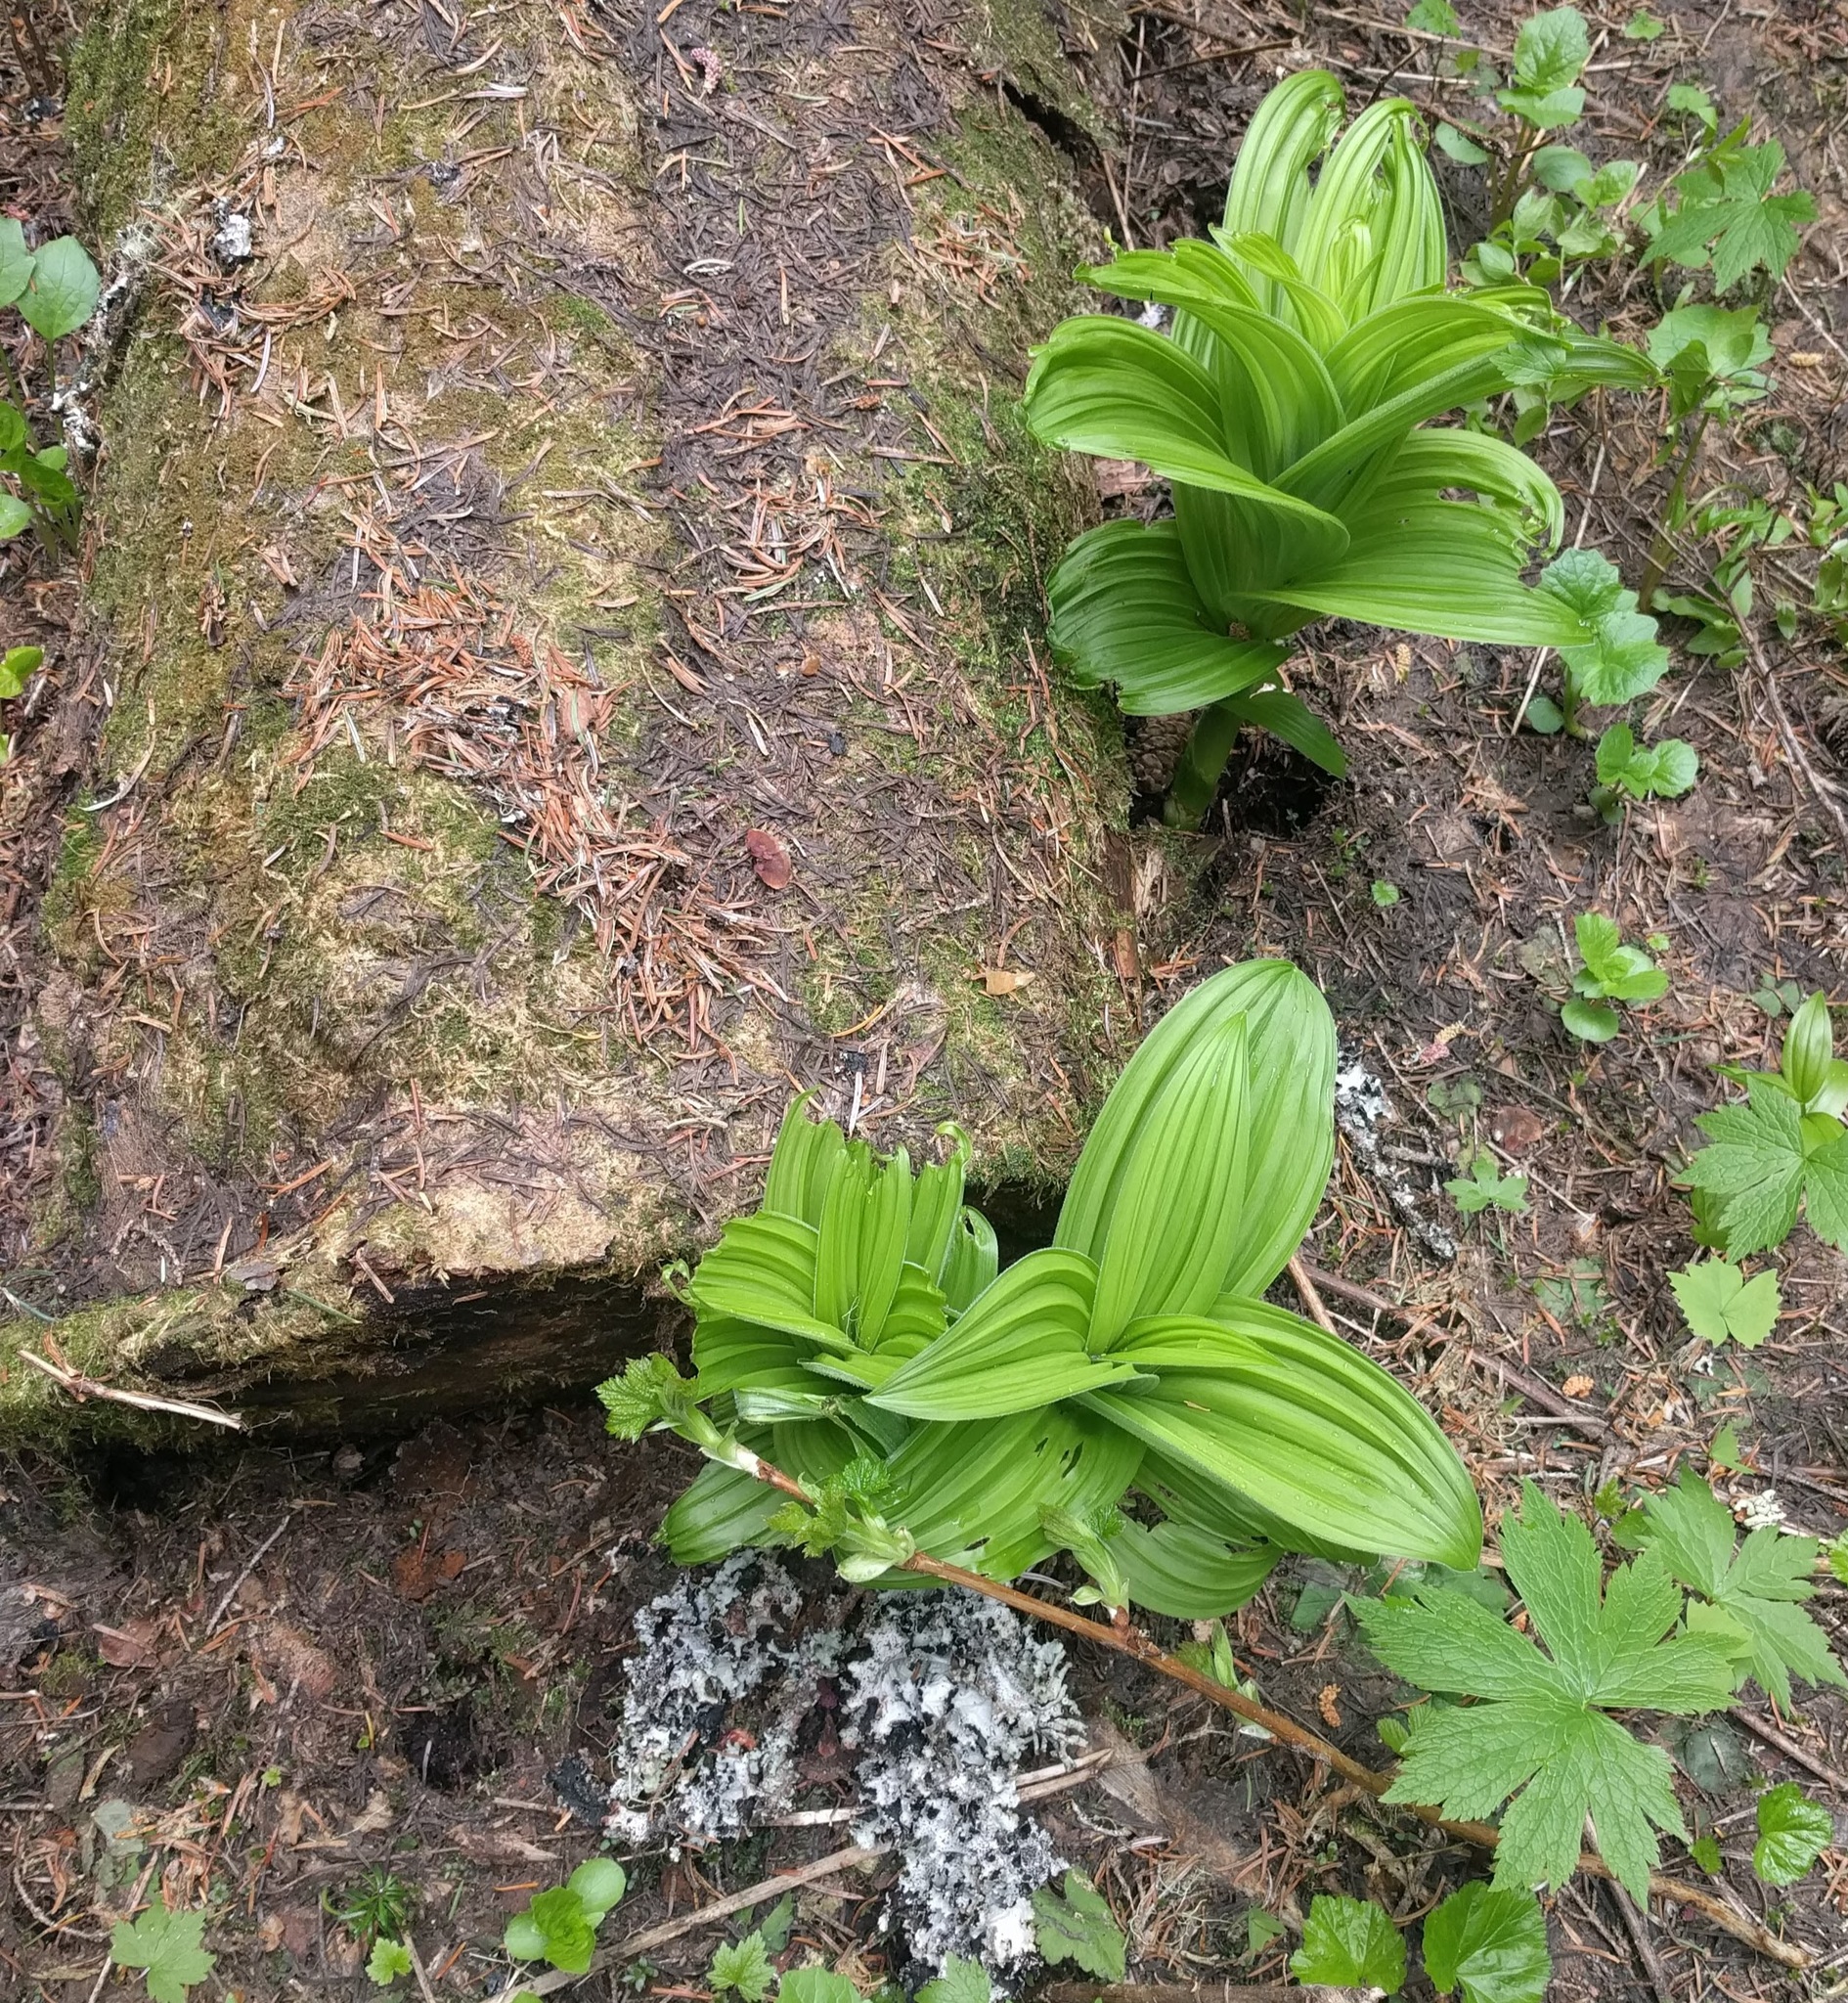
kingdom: Plantae
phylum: Tracheophyta
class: Liliopsida
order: Liliales
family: Melanthiaceae
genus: Veratrum
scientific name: Veratrum viride
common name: American false hellebore
